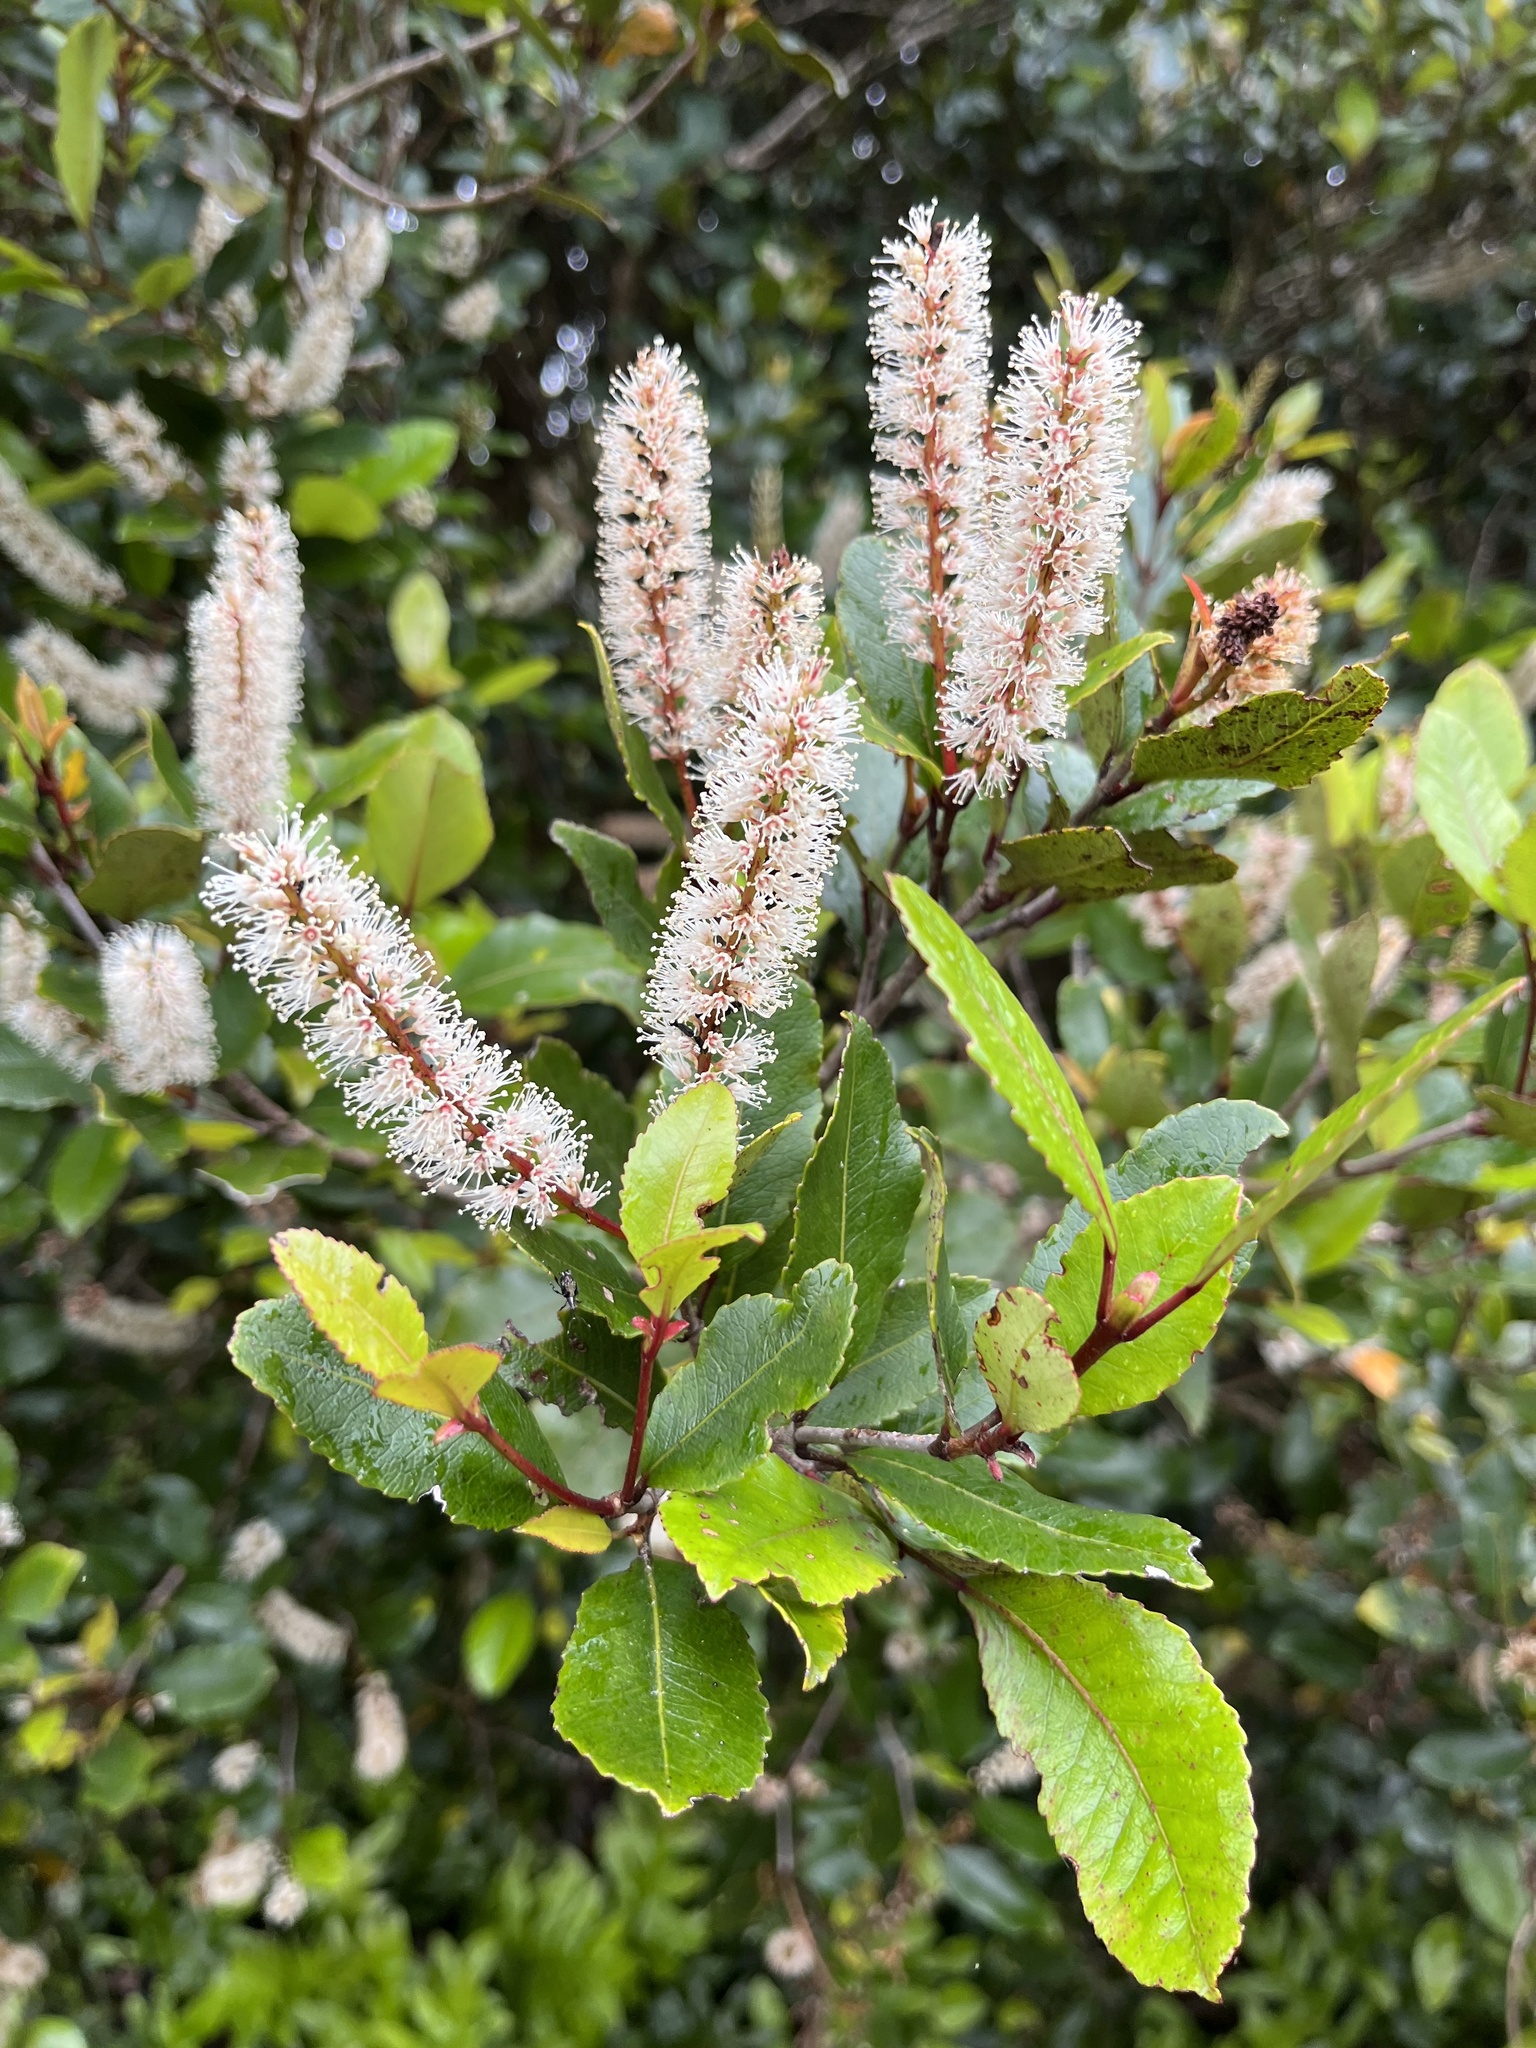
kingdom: Plantae
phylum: Tracheophyta
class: Magnoliopsida
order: Oxalidales
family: Cunoniaceae
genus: Pterophylla
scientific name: Pterophylla racemosa
